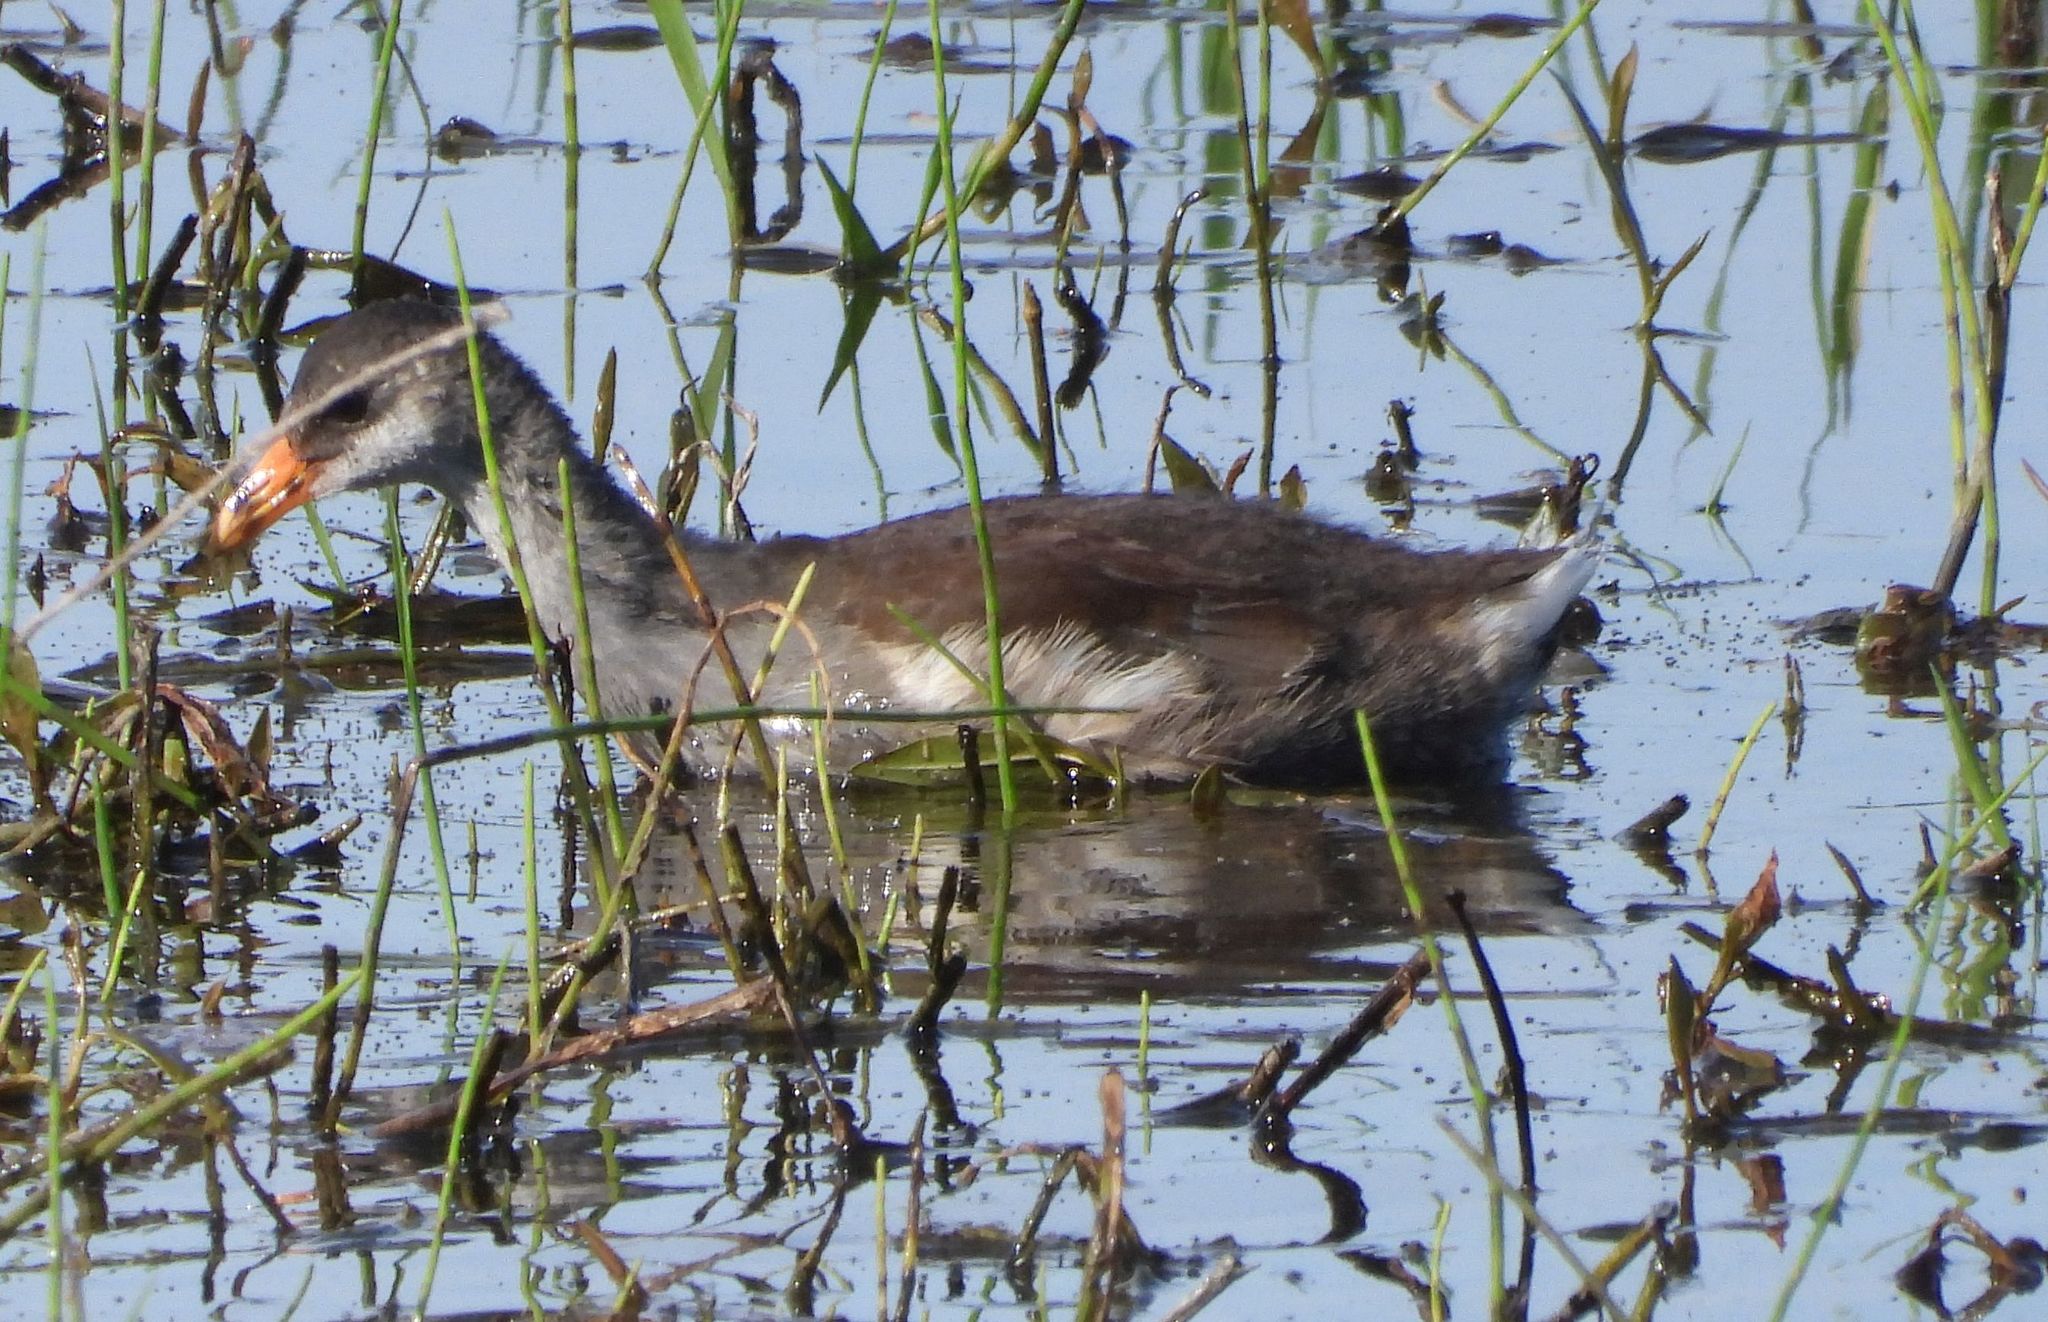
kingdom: Animalia
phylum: Chordata
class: Aves
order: Gruiformes
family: Rallidae
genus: Gallinula
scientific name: Gallinula chloropus
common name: Common moorhen
